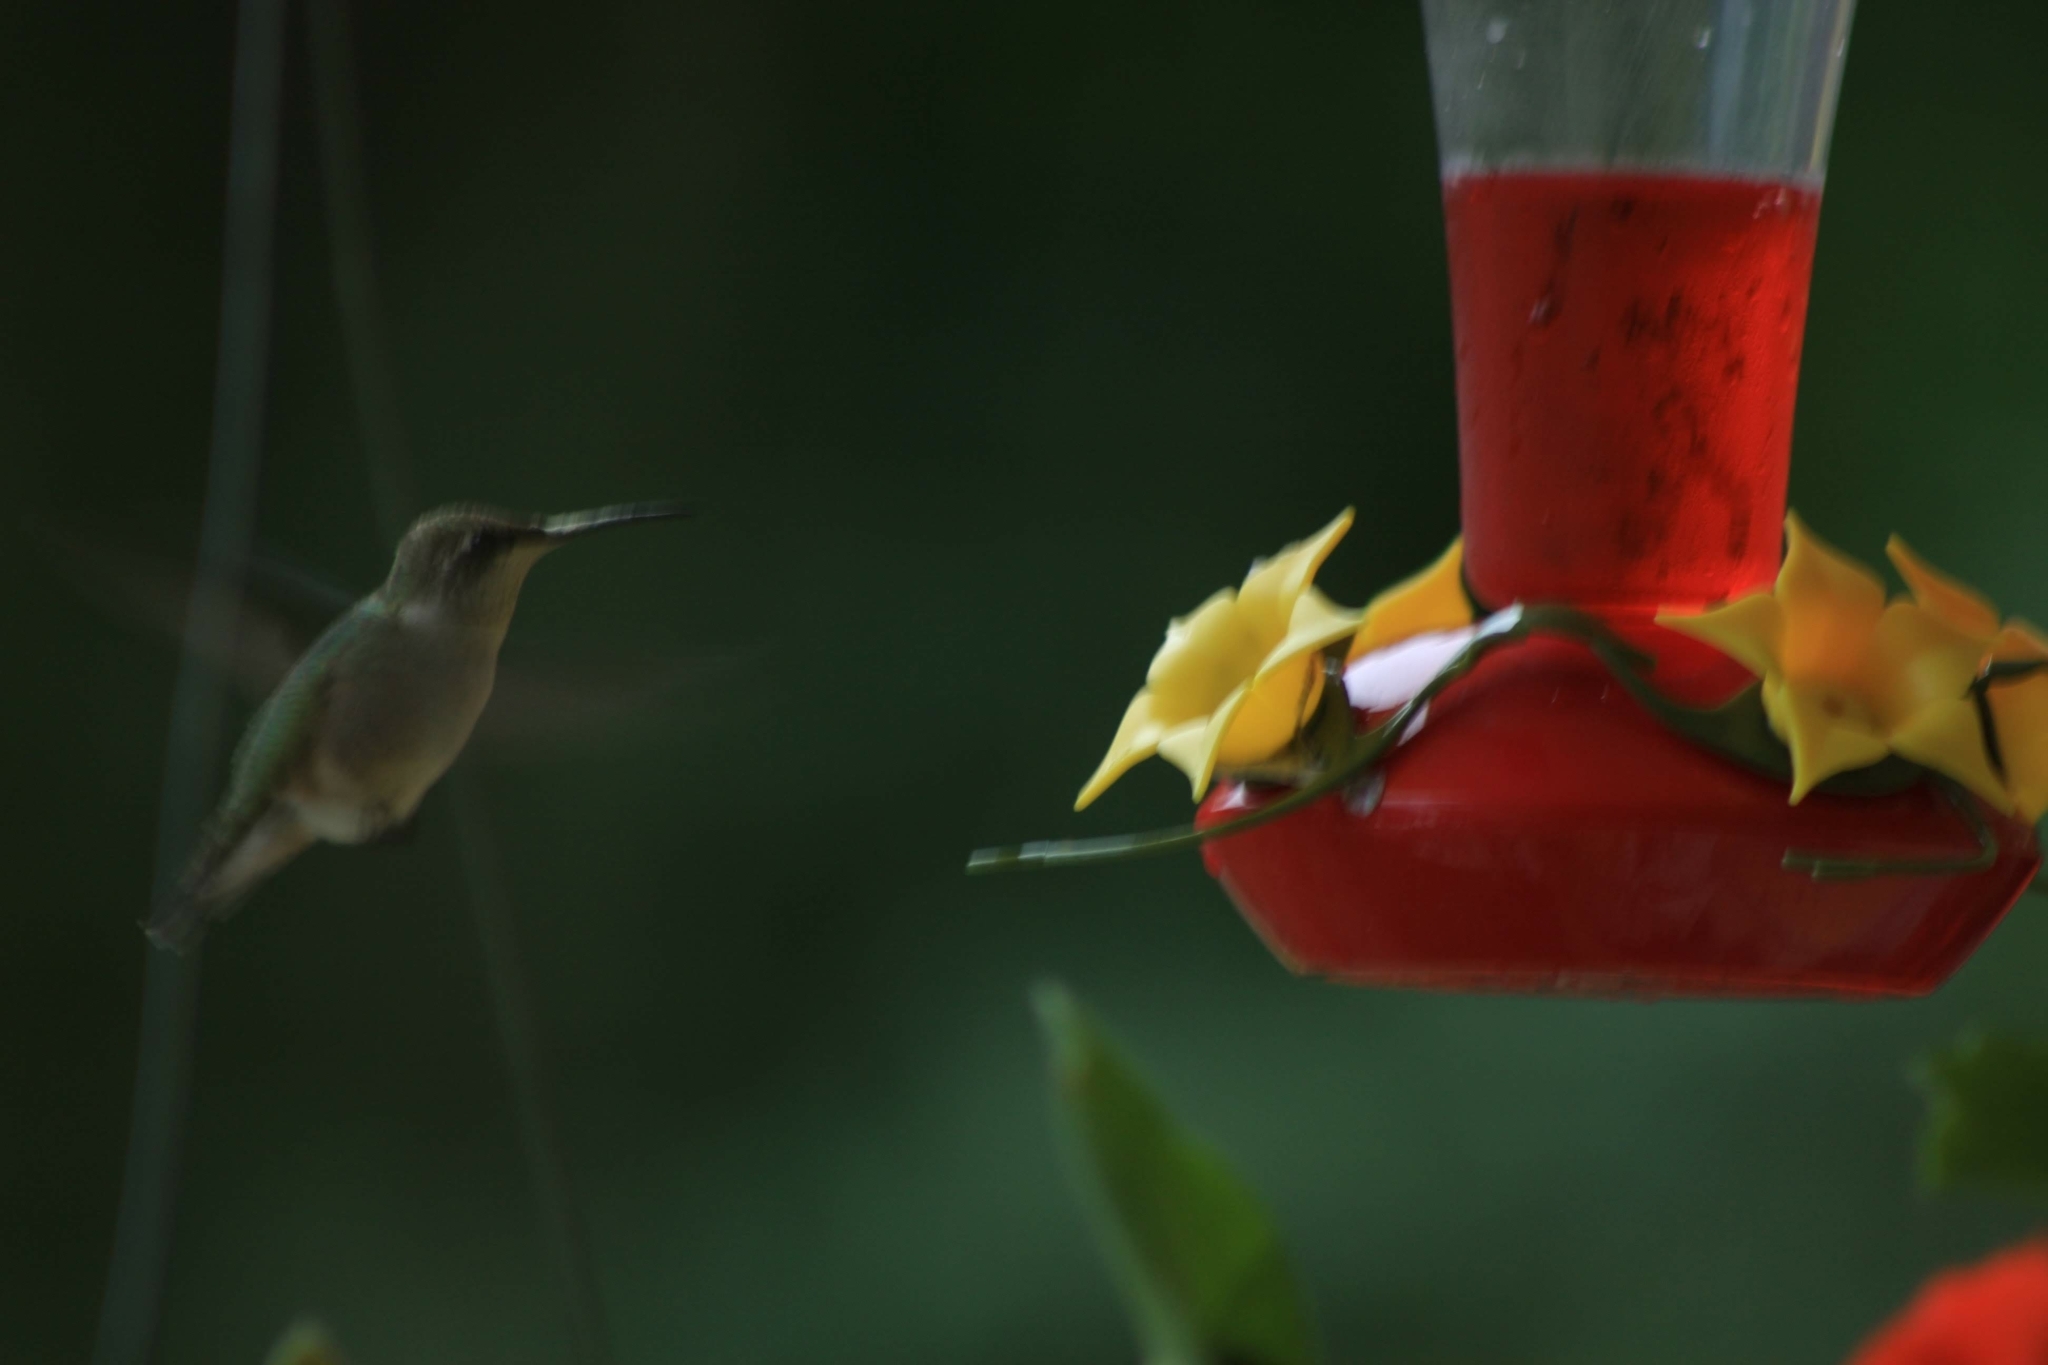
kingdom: Animalia
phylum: Chordata
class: Aves
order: Apodiformes
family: Trochilidae
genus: Archilochus
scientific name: Archilochus colubris
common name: Ruby-throated hummingbird
